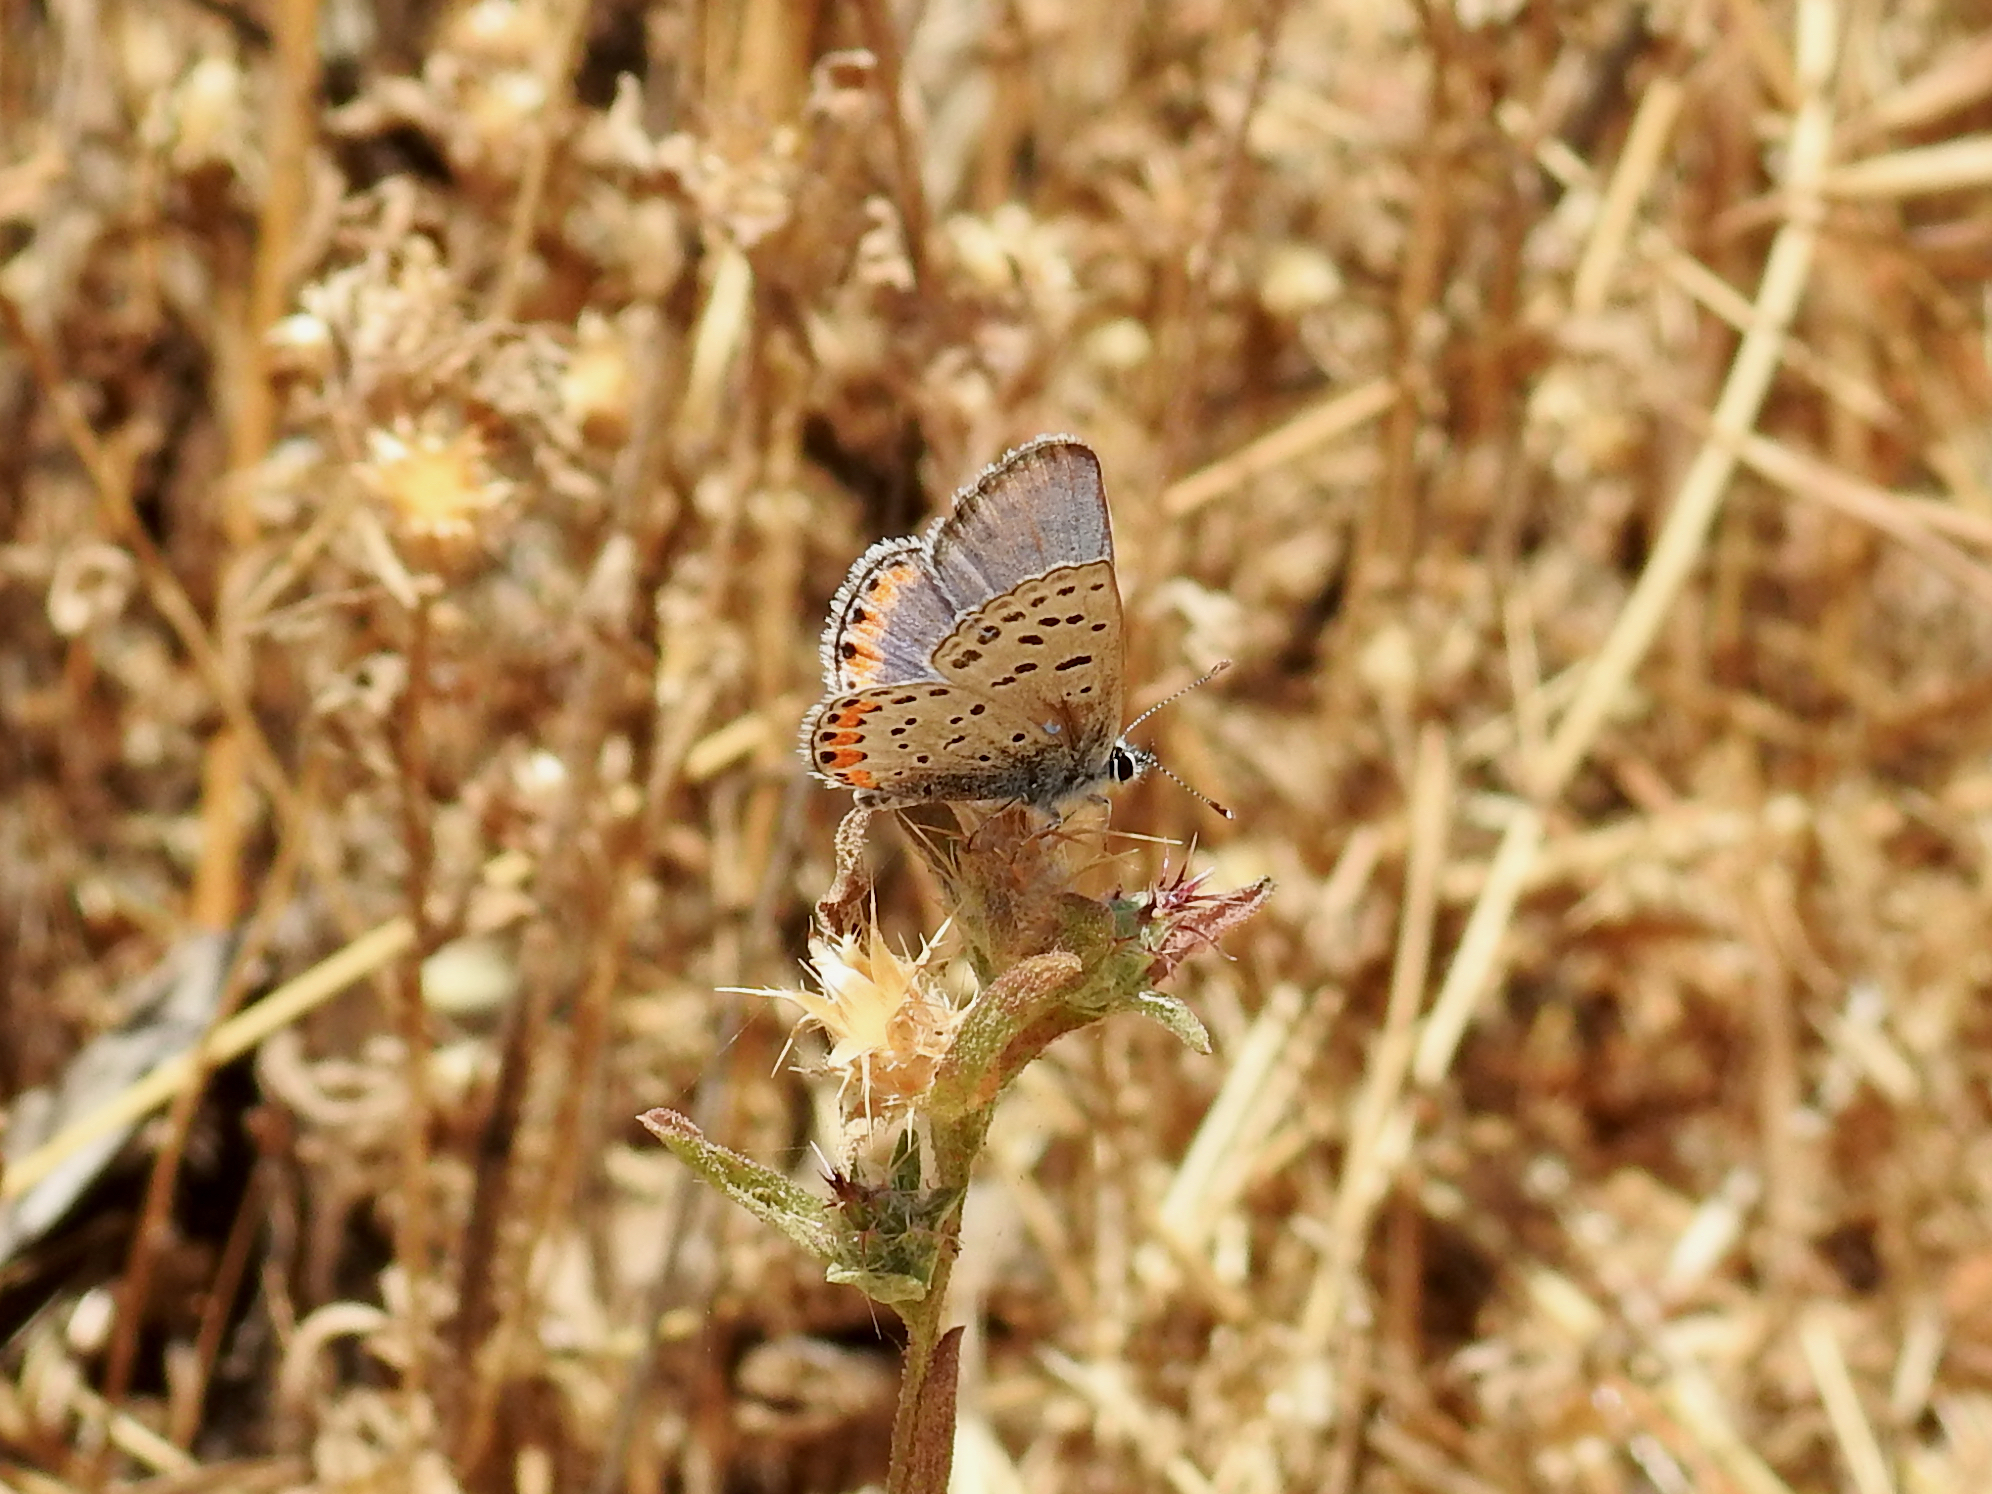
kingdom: Animalia
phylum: Arthropoda
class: Insecta
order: Lepidoptera
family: Lycaenidae
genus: Icaricia
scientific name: Icaricia acmon
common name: Acmon blue
